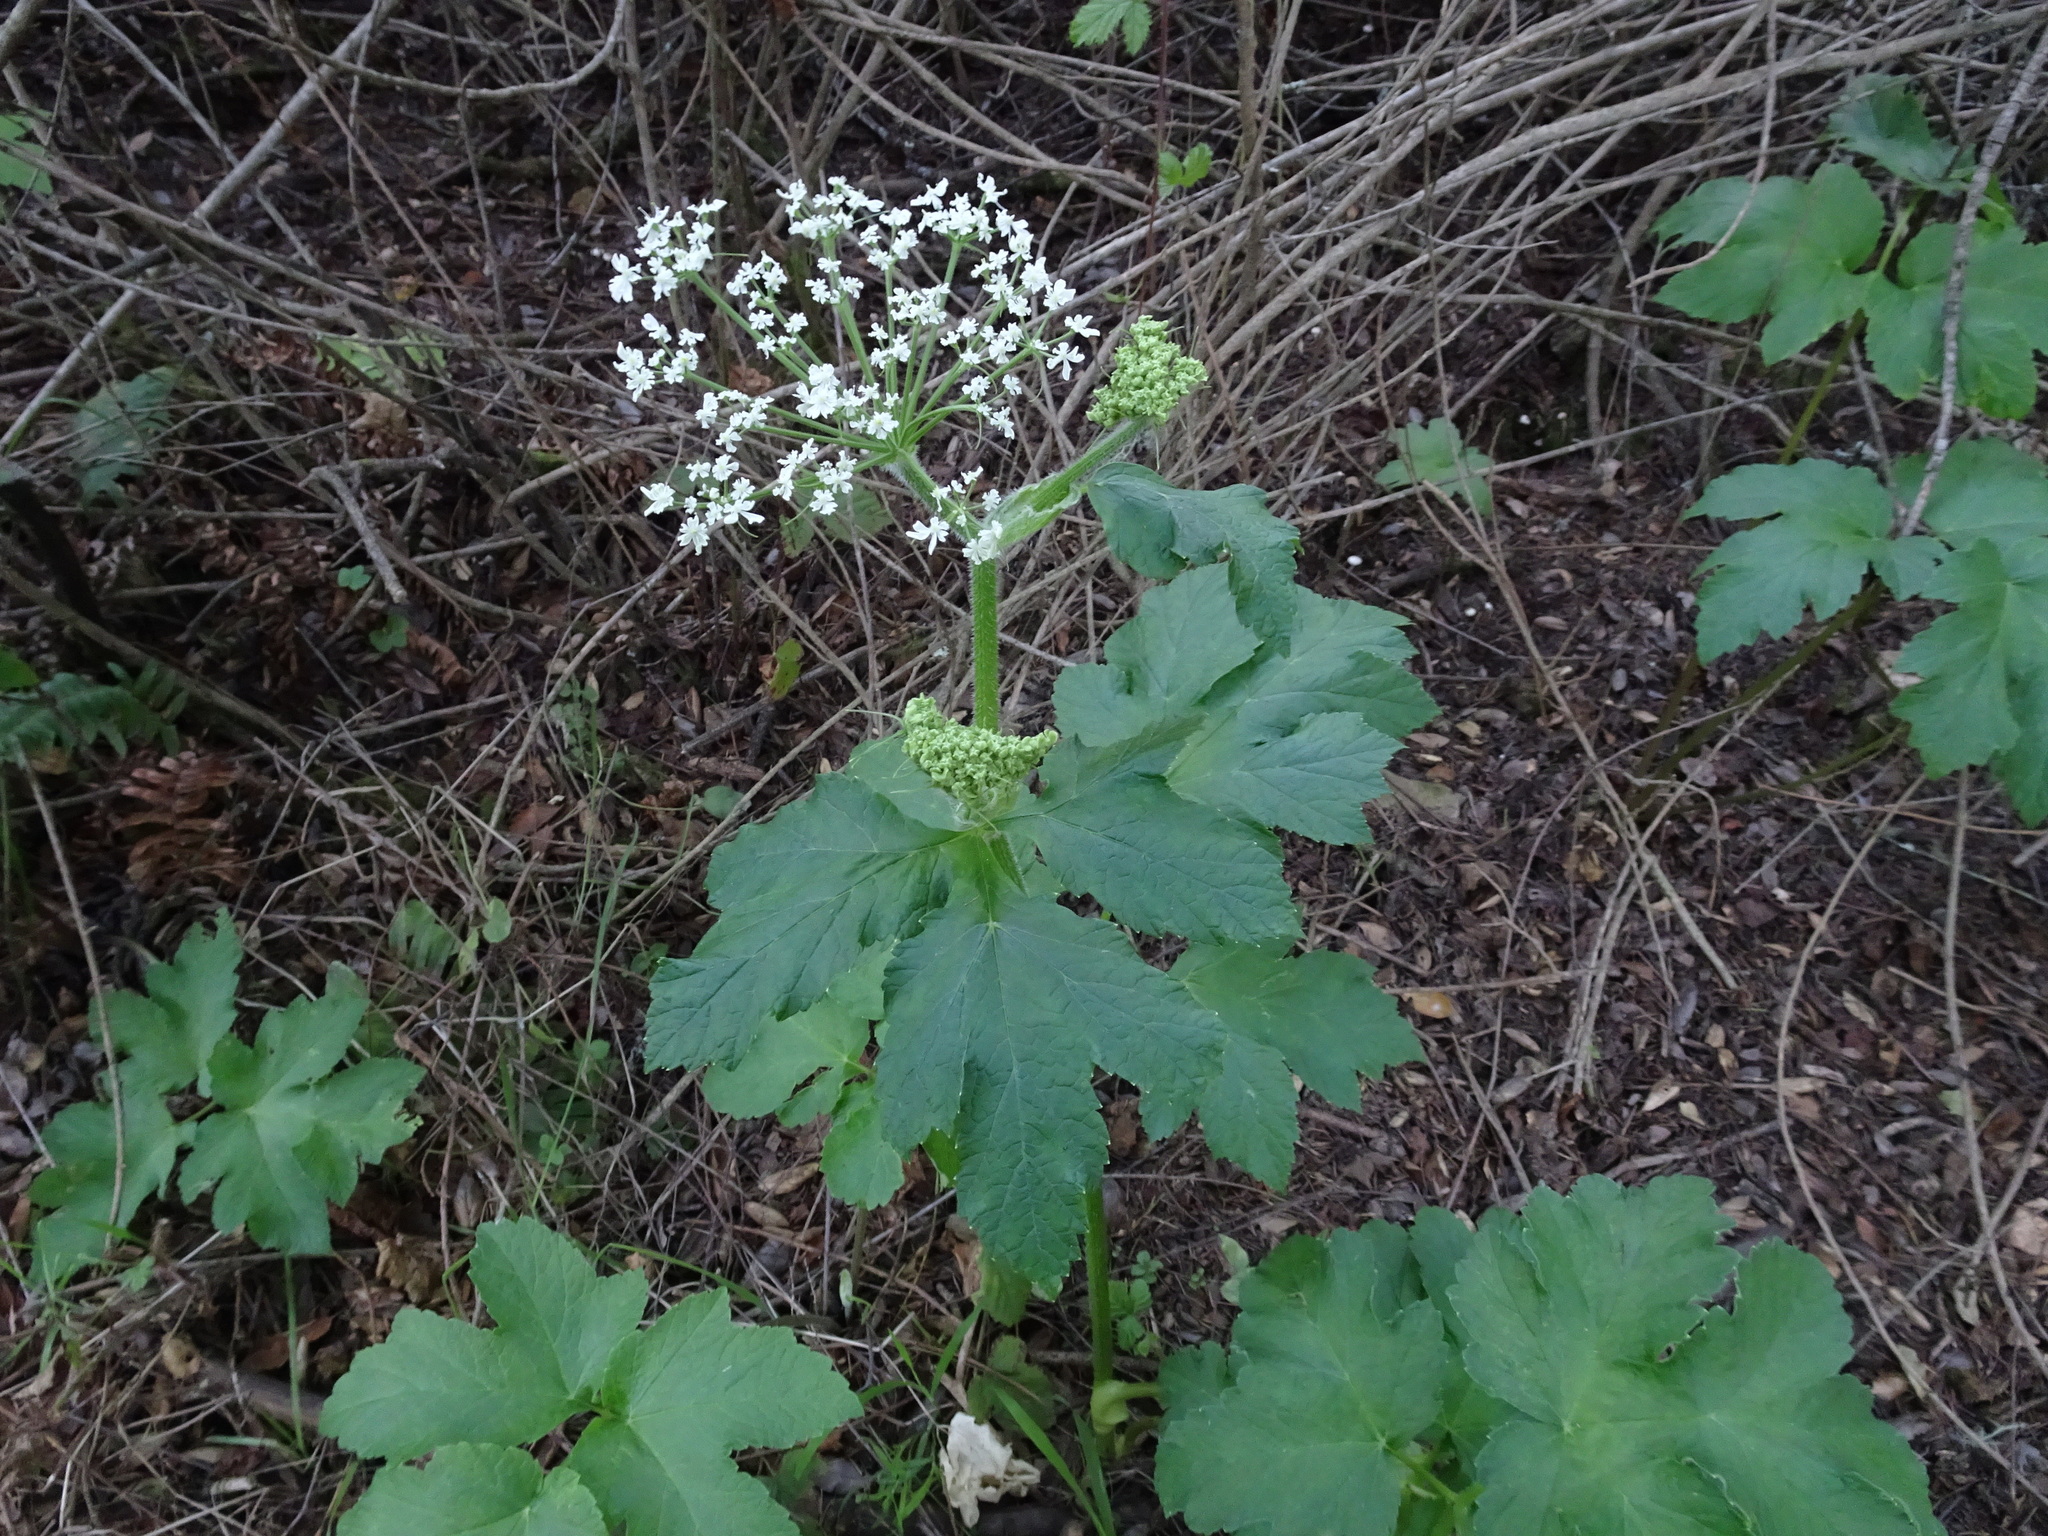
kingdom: Plantae
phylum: Tracheophyta
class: Magnoliopsida
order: Apiales
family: Apiaceae
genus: Heracleum
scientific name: Heracleum maximum
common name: American cow parsnip
